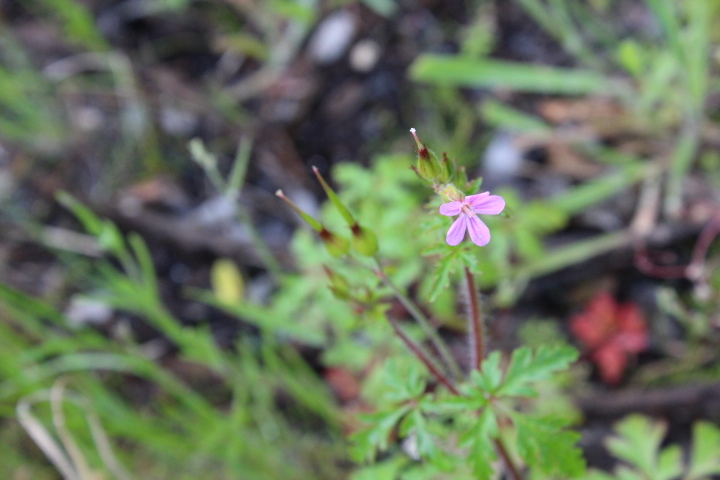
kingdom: Plantae
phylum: Tracheophyta
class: Magnoliopsida
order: Geraniales
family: Geraniaceae
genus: Geranium
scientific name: Geranium robertianum
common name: Herb-robert
